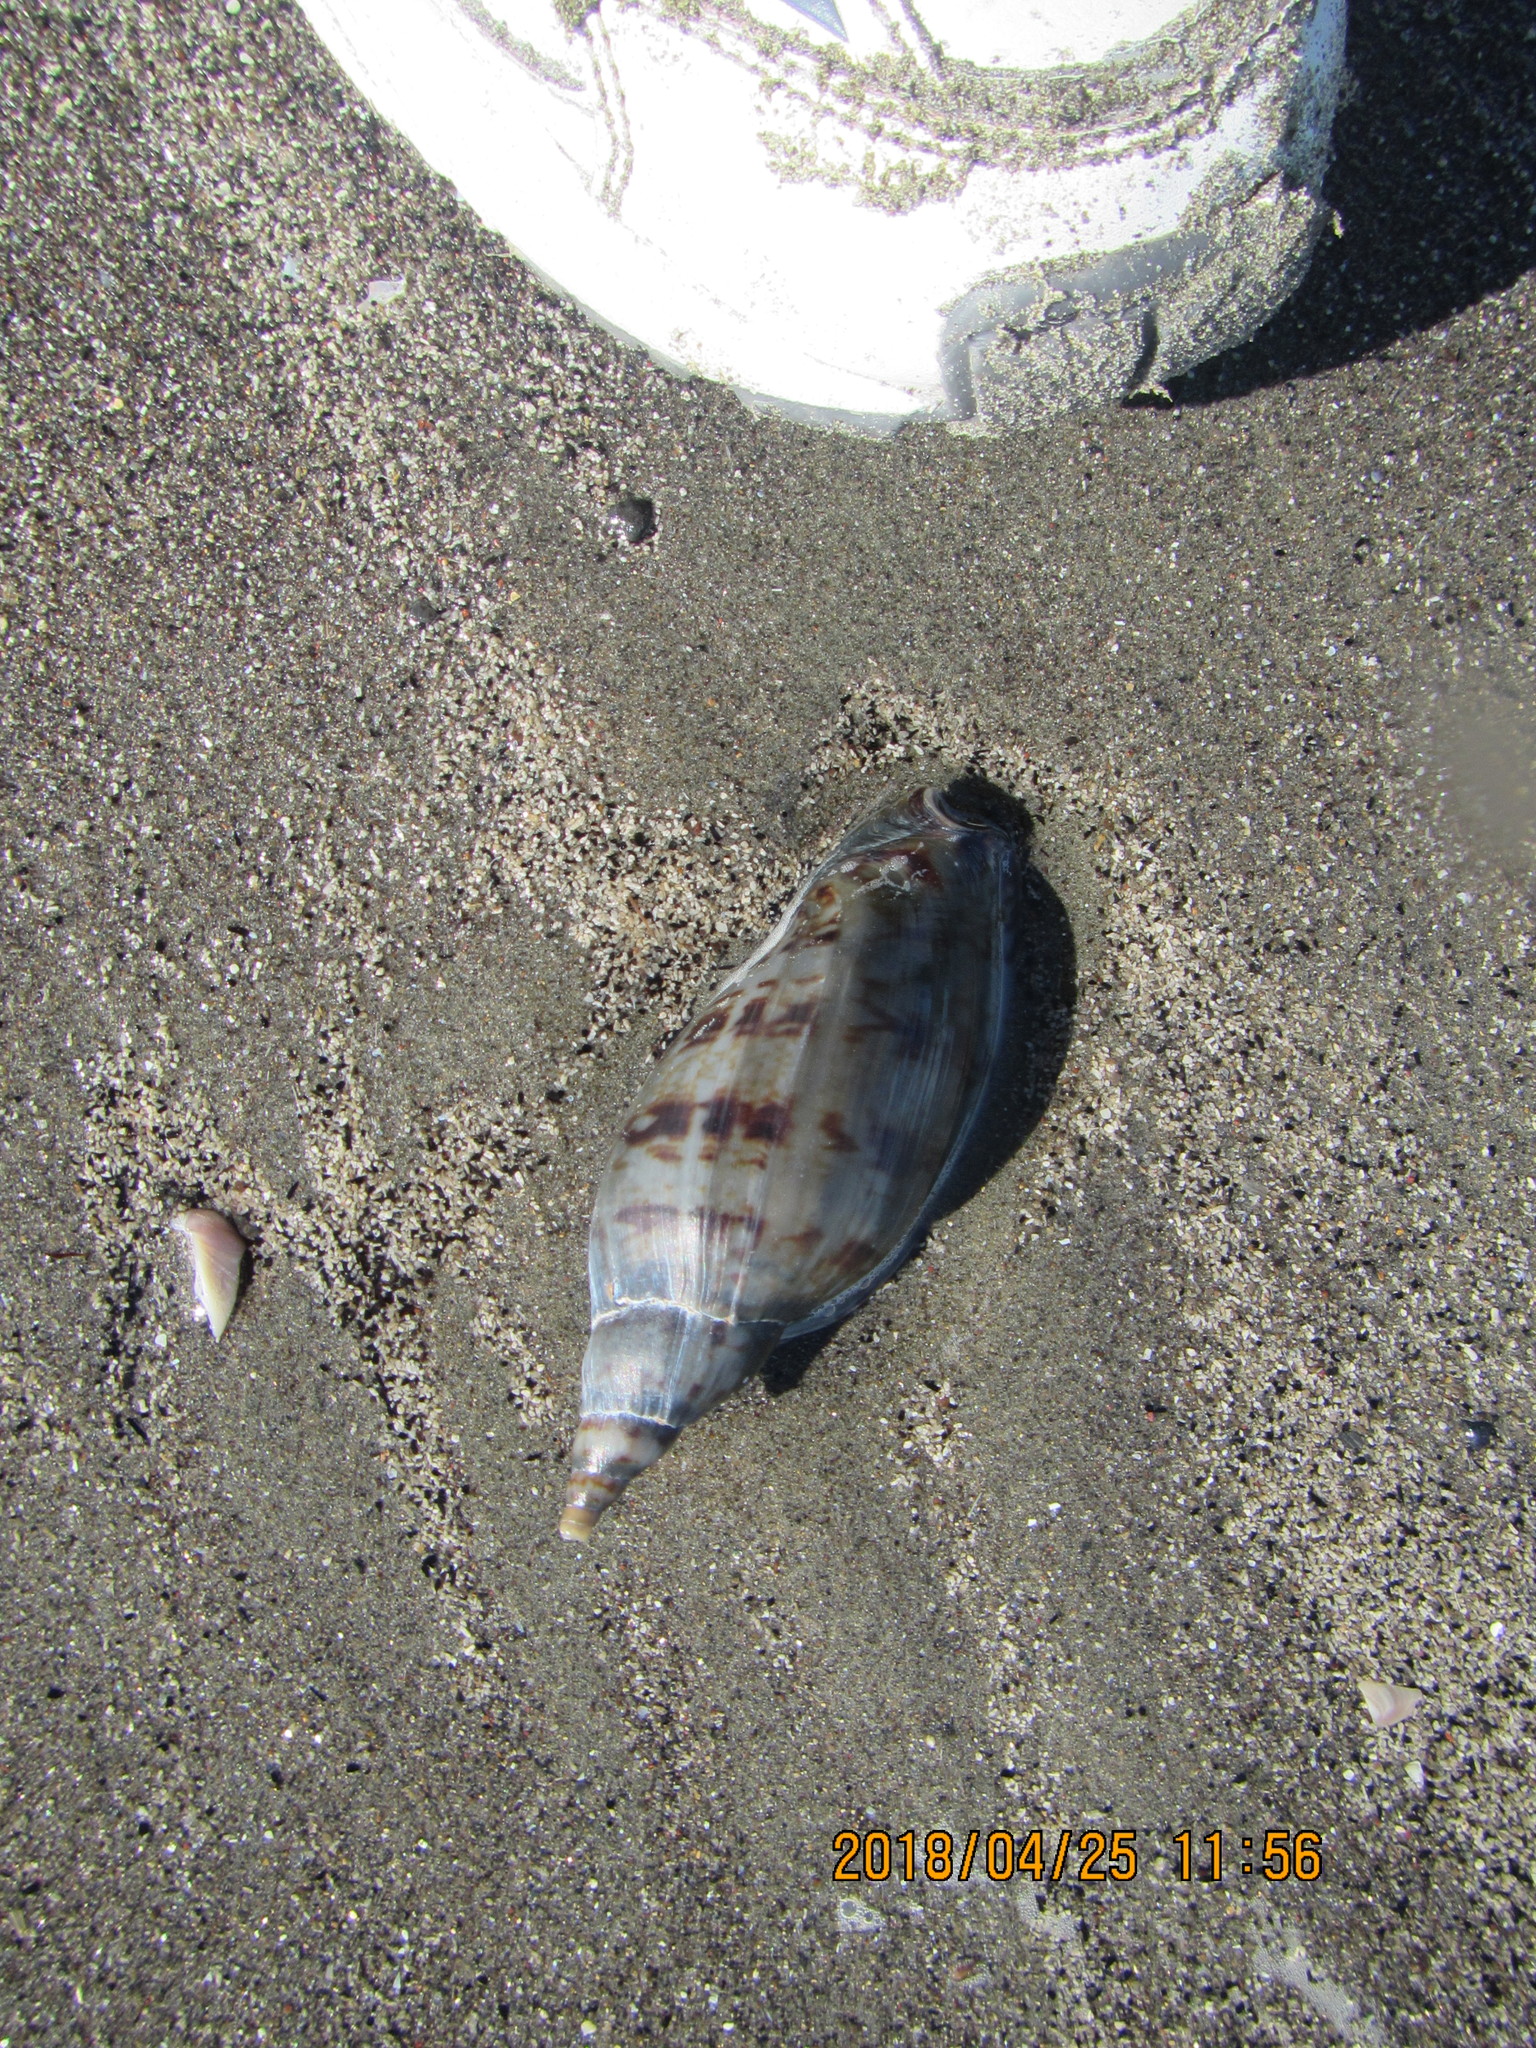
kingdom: Animalia
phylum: Mollusca
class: Gastropoda
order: Neogastropoda
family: Volutidae
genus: Alcithoe
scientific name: Alcithoe arabica
